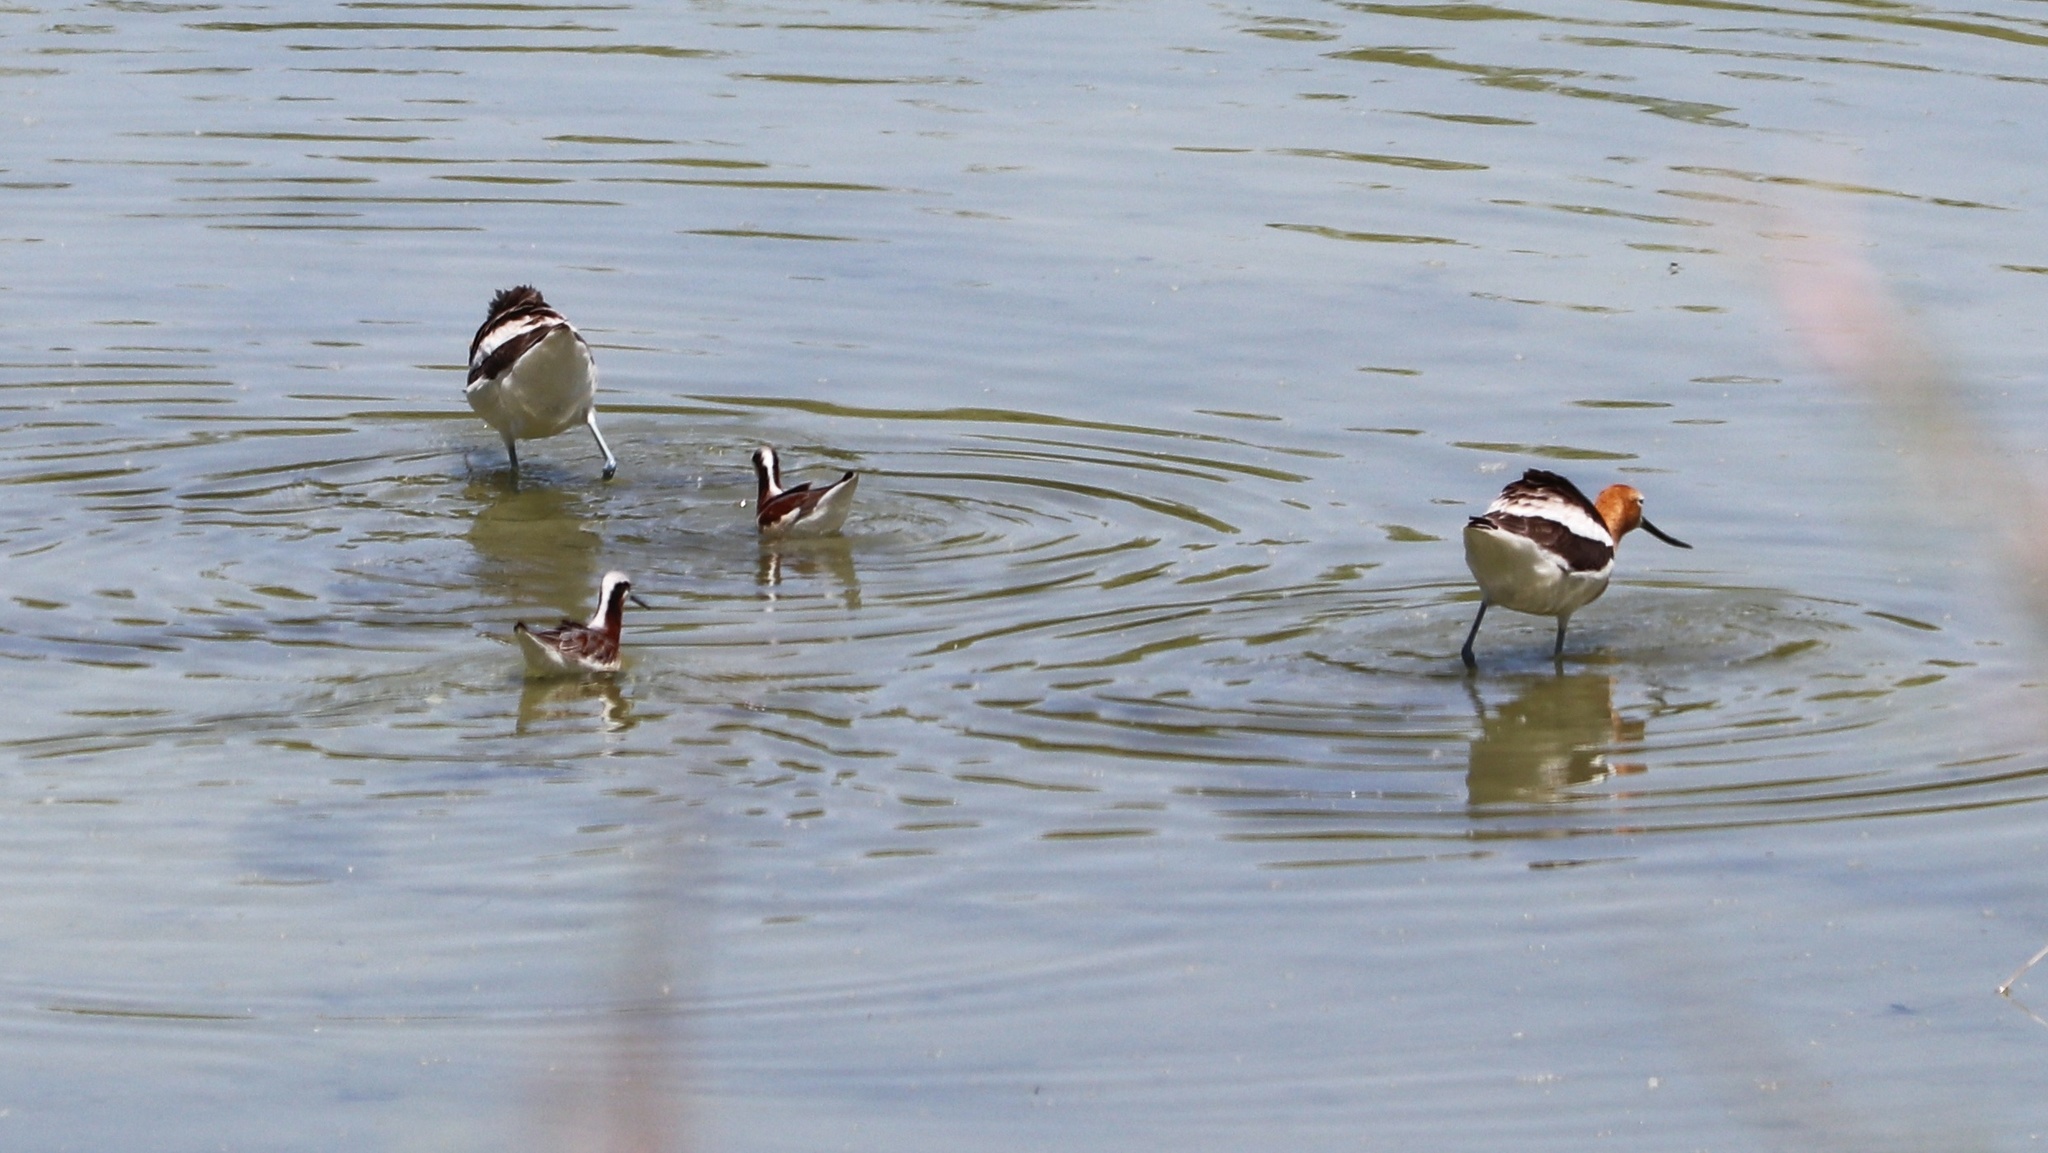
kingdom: Animalia
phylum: Chordata
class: Aves
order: Charadriiformes
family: Recurvirostridae
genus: Recurvirostra
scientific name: Recurvirostra americana
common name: American avocet
